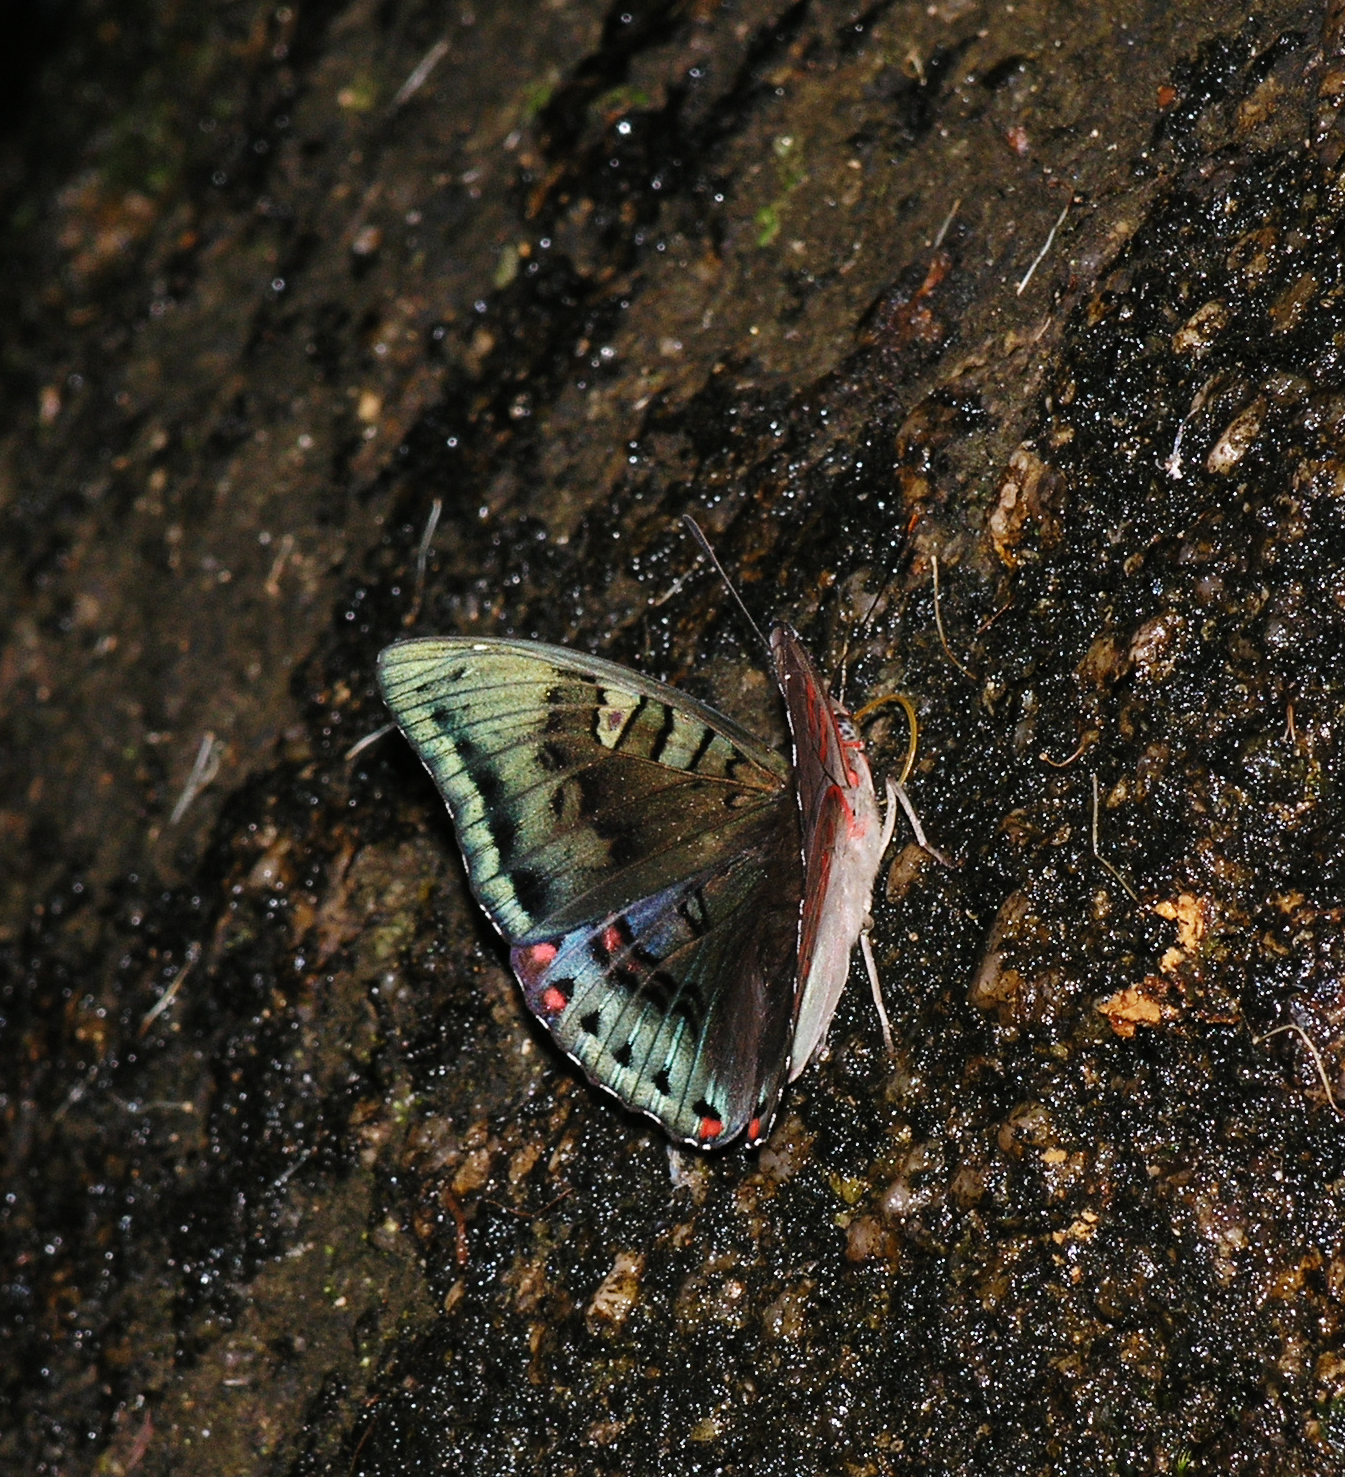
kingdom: Animalia
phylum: Arthropoda
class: Insecta
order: Lepidoptera
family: Nymphalidae
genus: Euthalia
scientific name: Euthalia djata
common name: Red-spot baron
